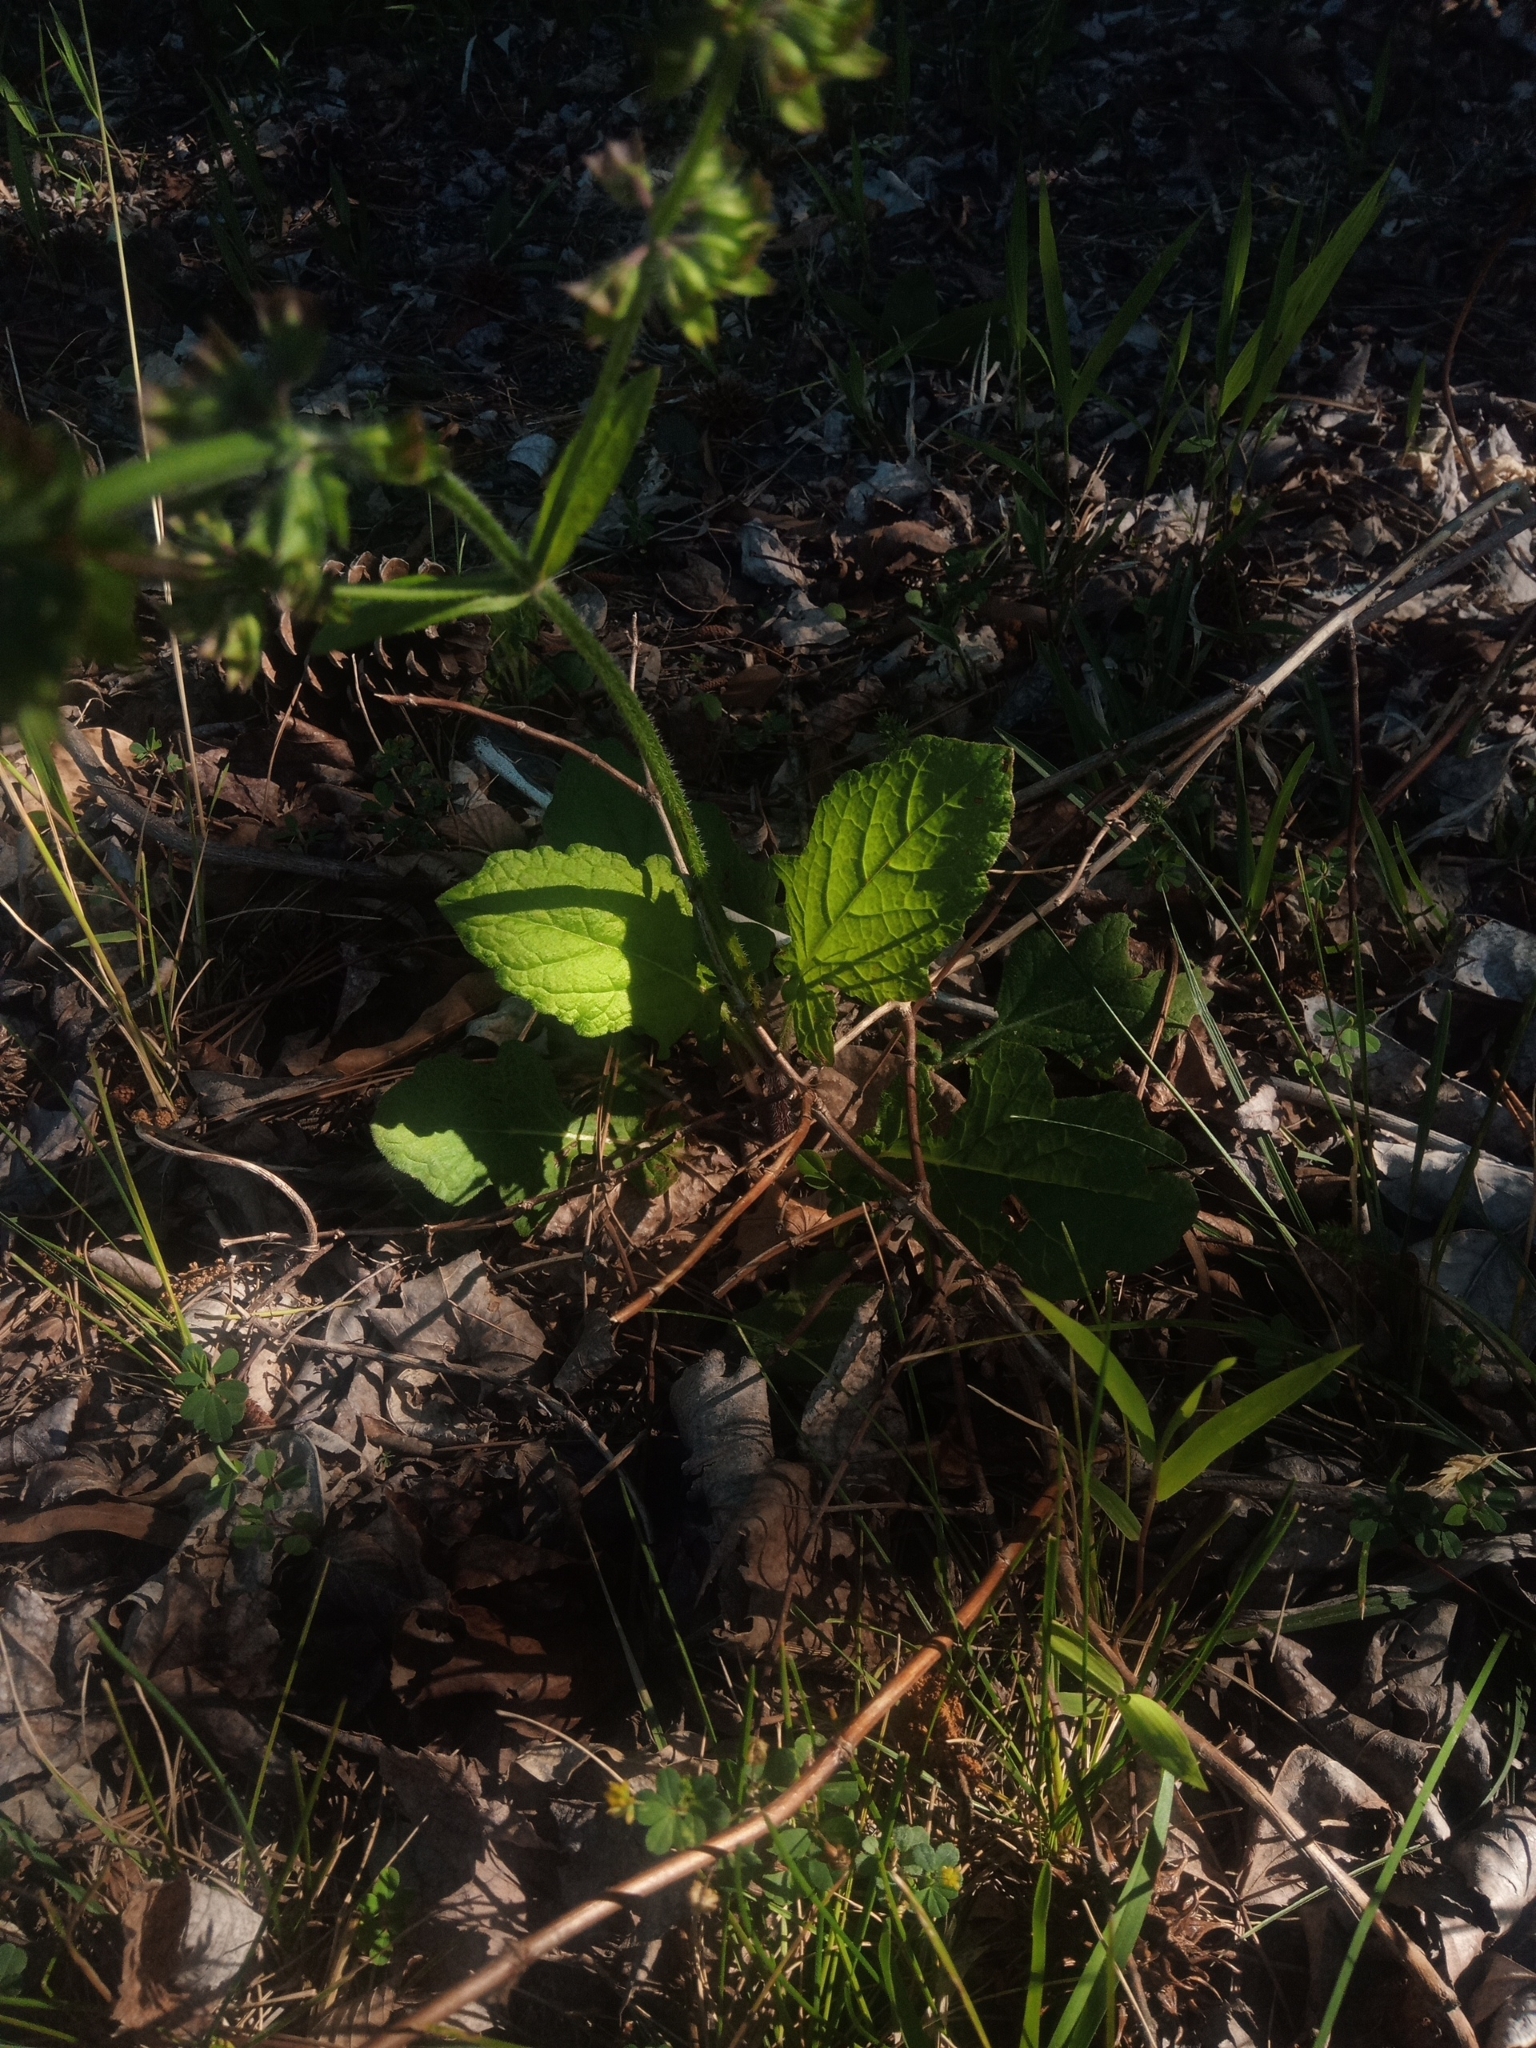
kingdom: Plantae
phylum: Tracheophyta
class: Magnoliopsida
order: Lamiales
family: Lamiaceae
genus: Salvia
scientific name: Salvia lyrata
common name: Cancerweed
